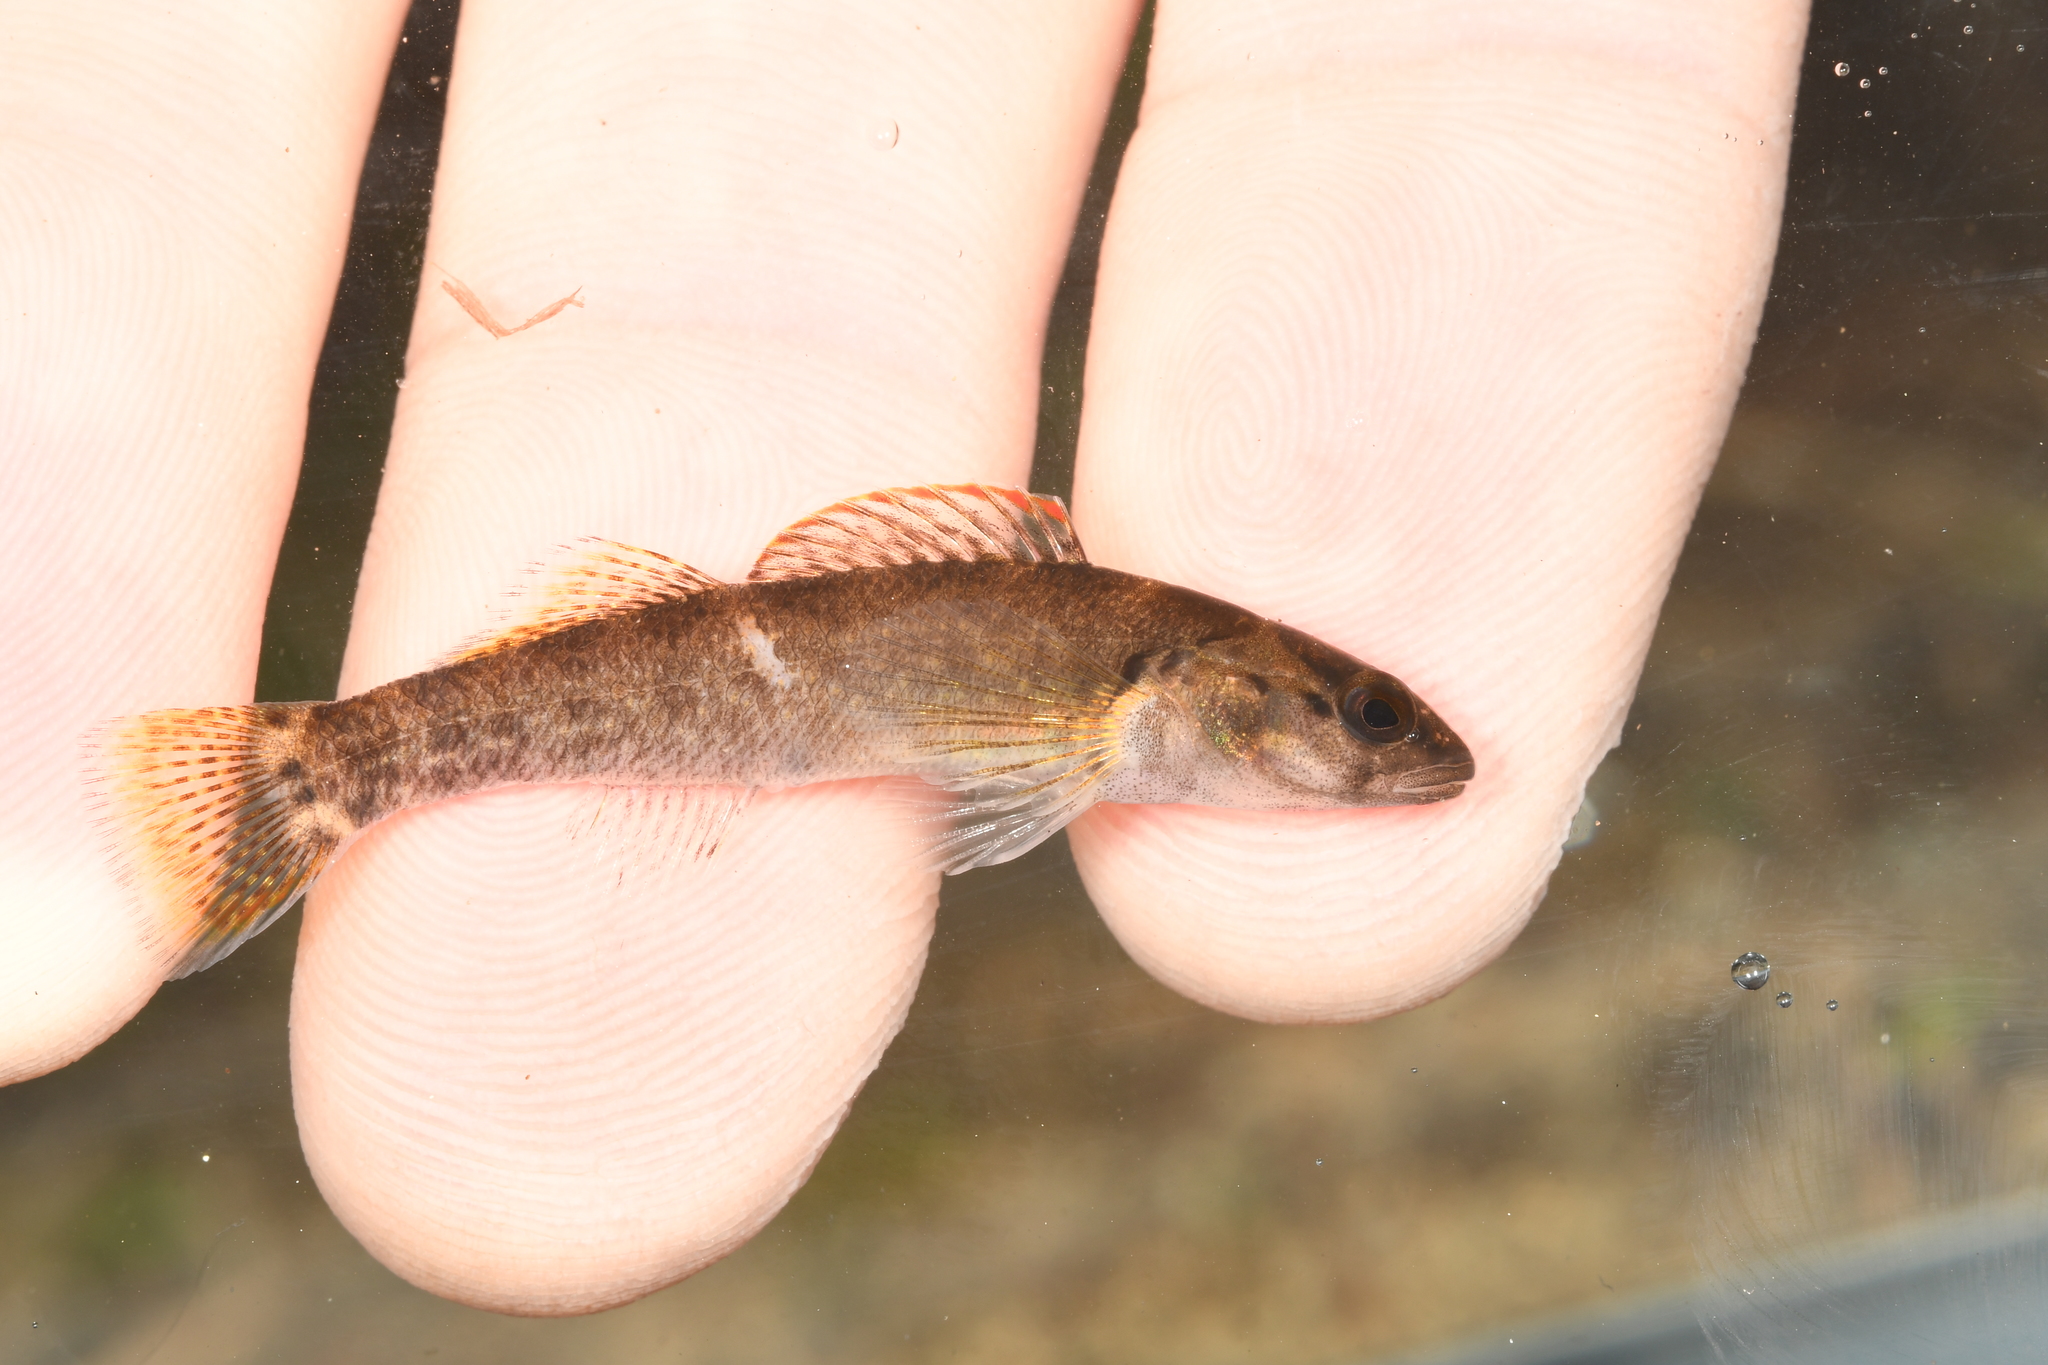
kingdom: Animalia
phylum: Chordata
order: Perciformes
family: Percidae
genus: Etheostoma
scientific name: Etheostoma jordani
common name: Greenbreast darter
